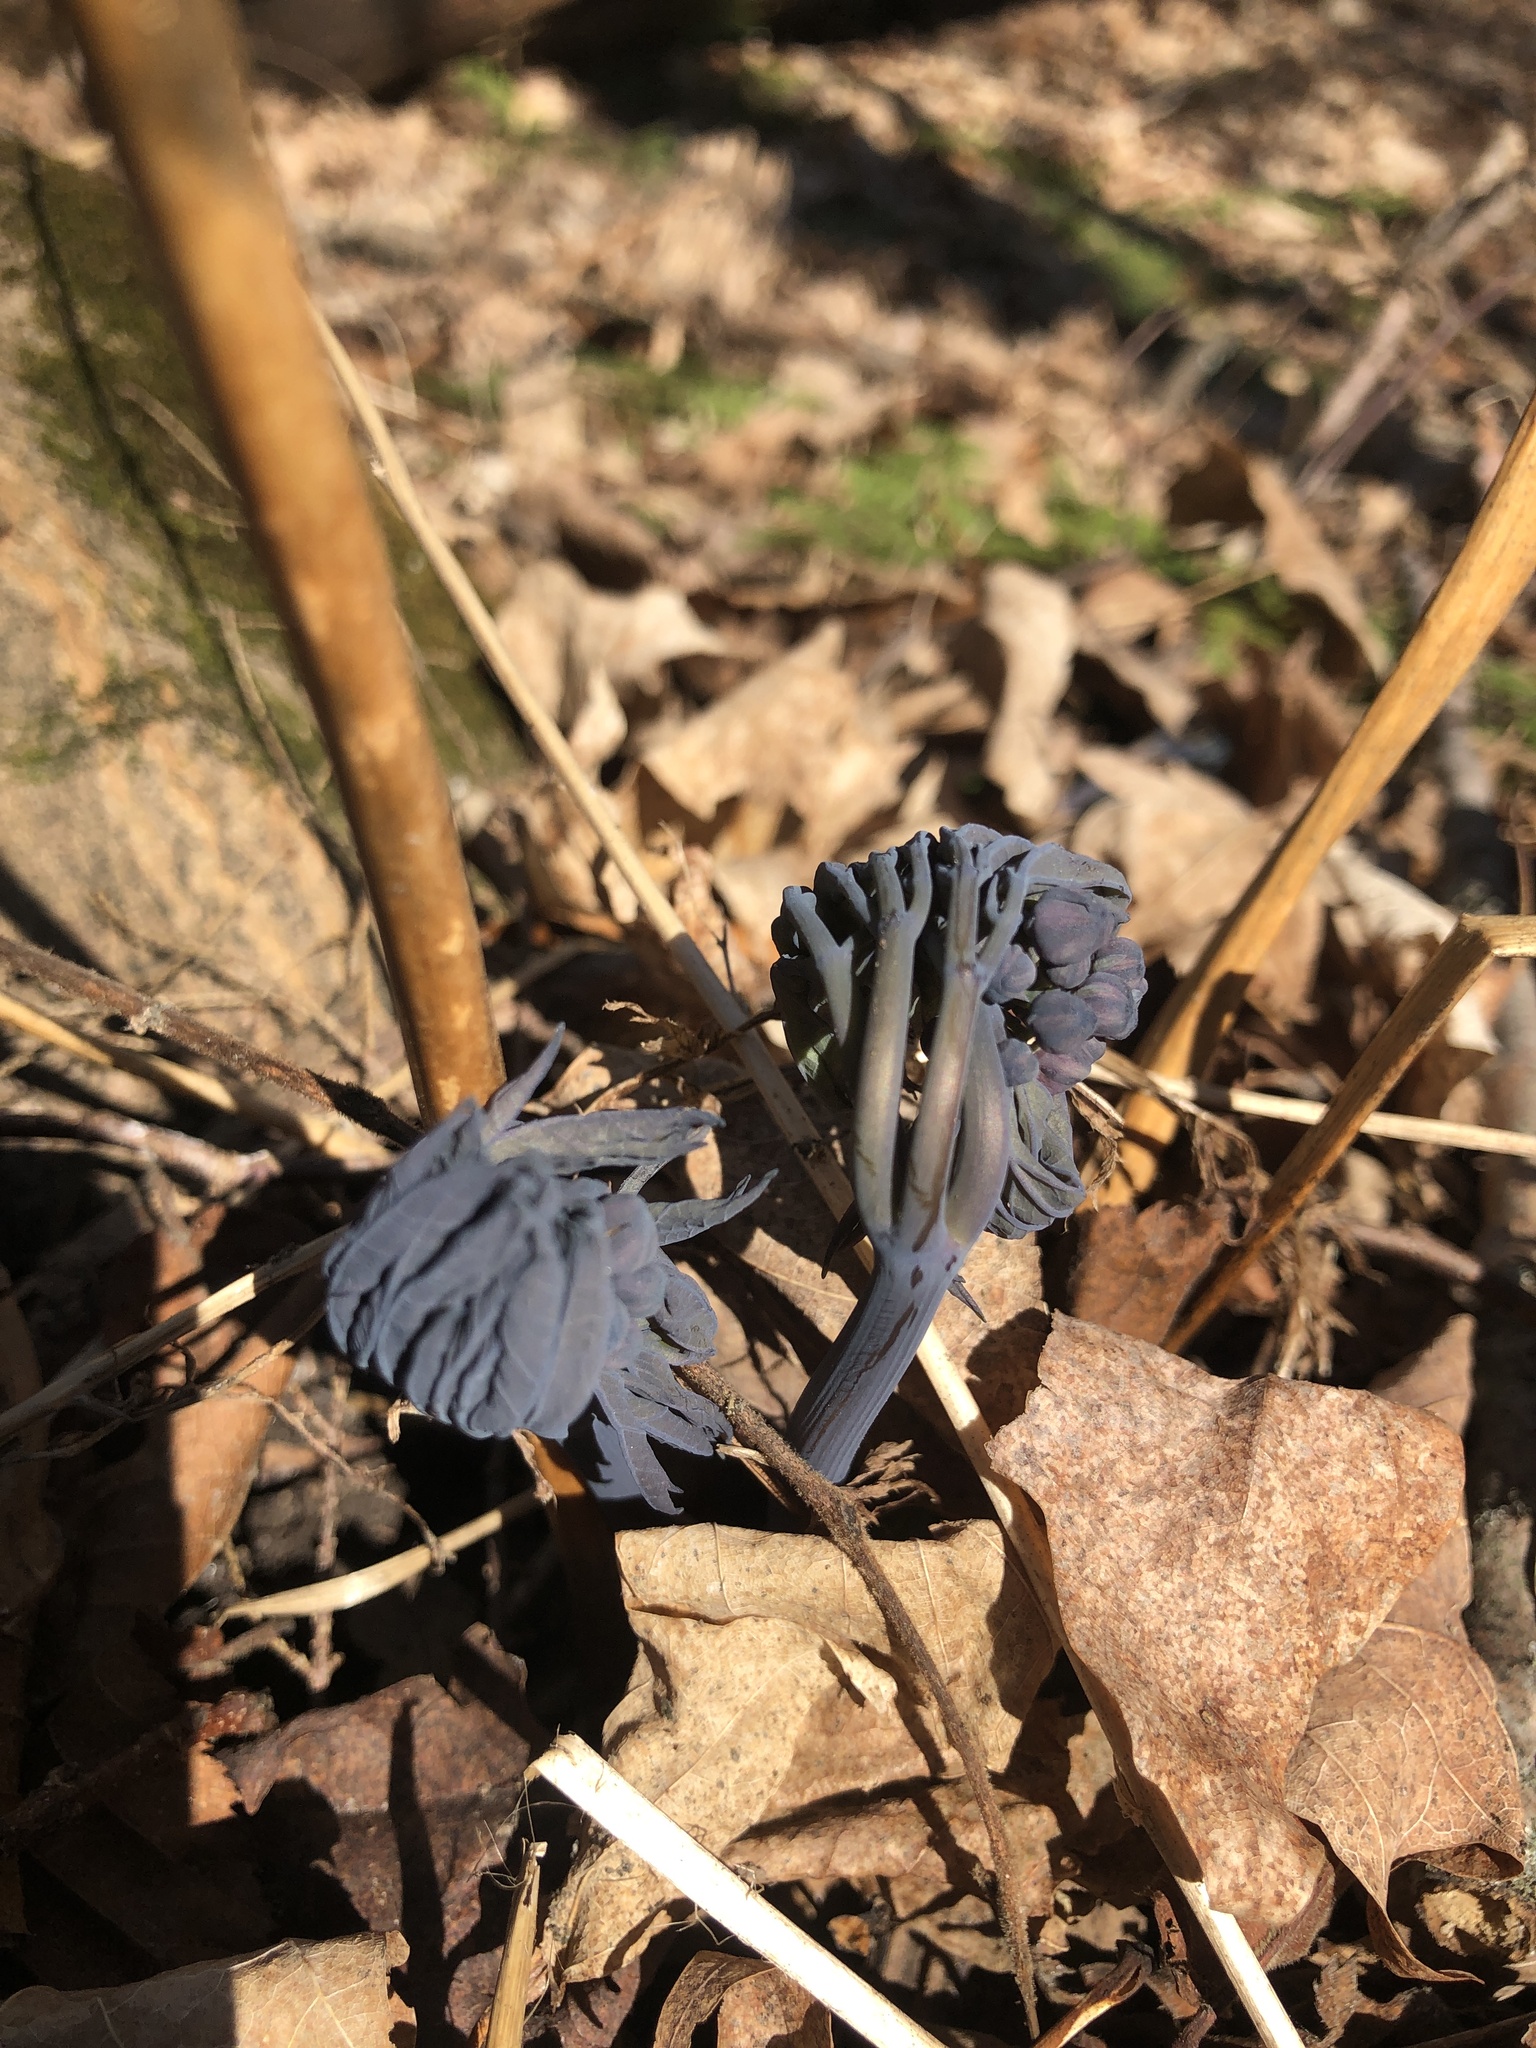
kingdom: Plantae
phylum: Tracheophyta
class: Magnoliopsida
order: Ranunculales
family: Berberidaceae
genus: Caulophyllum
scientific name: Caulophyllum giganteum
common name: Blue cohosh
